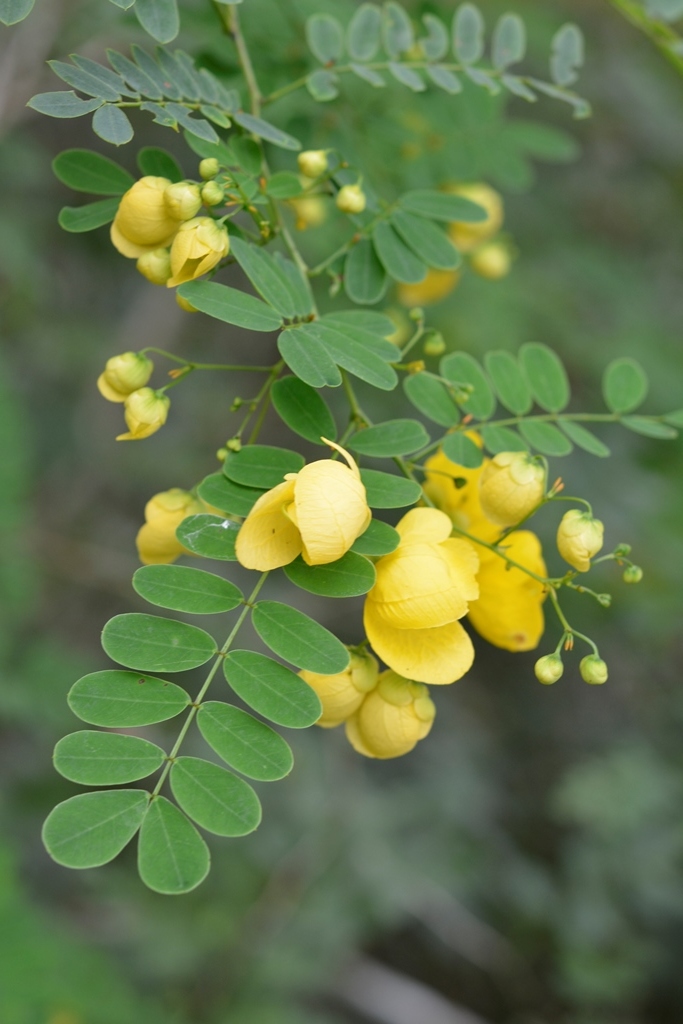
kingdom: Plantae
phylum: Tracheophyta
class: Magnoliopsida
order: Fabales
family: Fabaceae
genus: Senna
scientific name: Senna pallida
